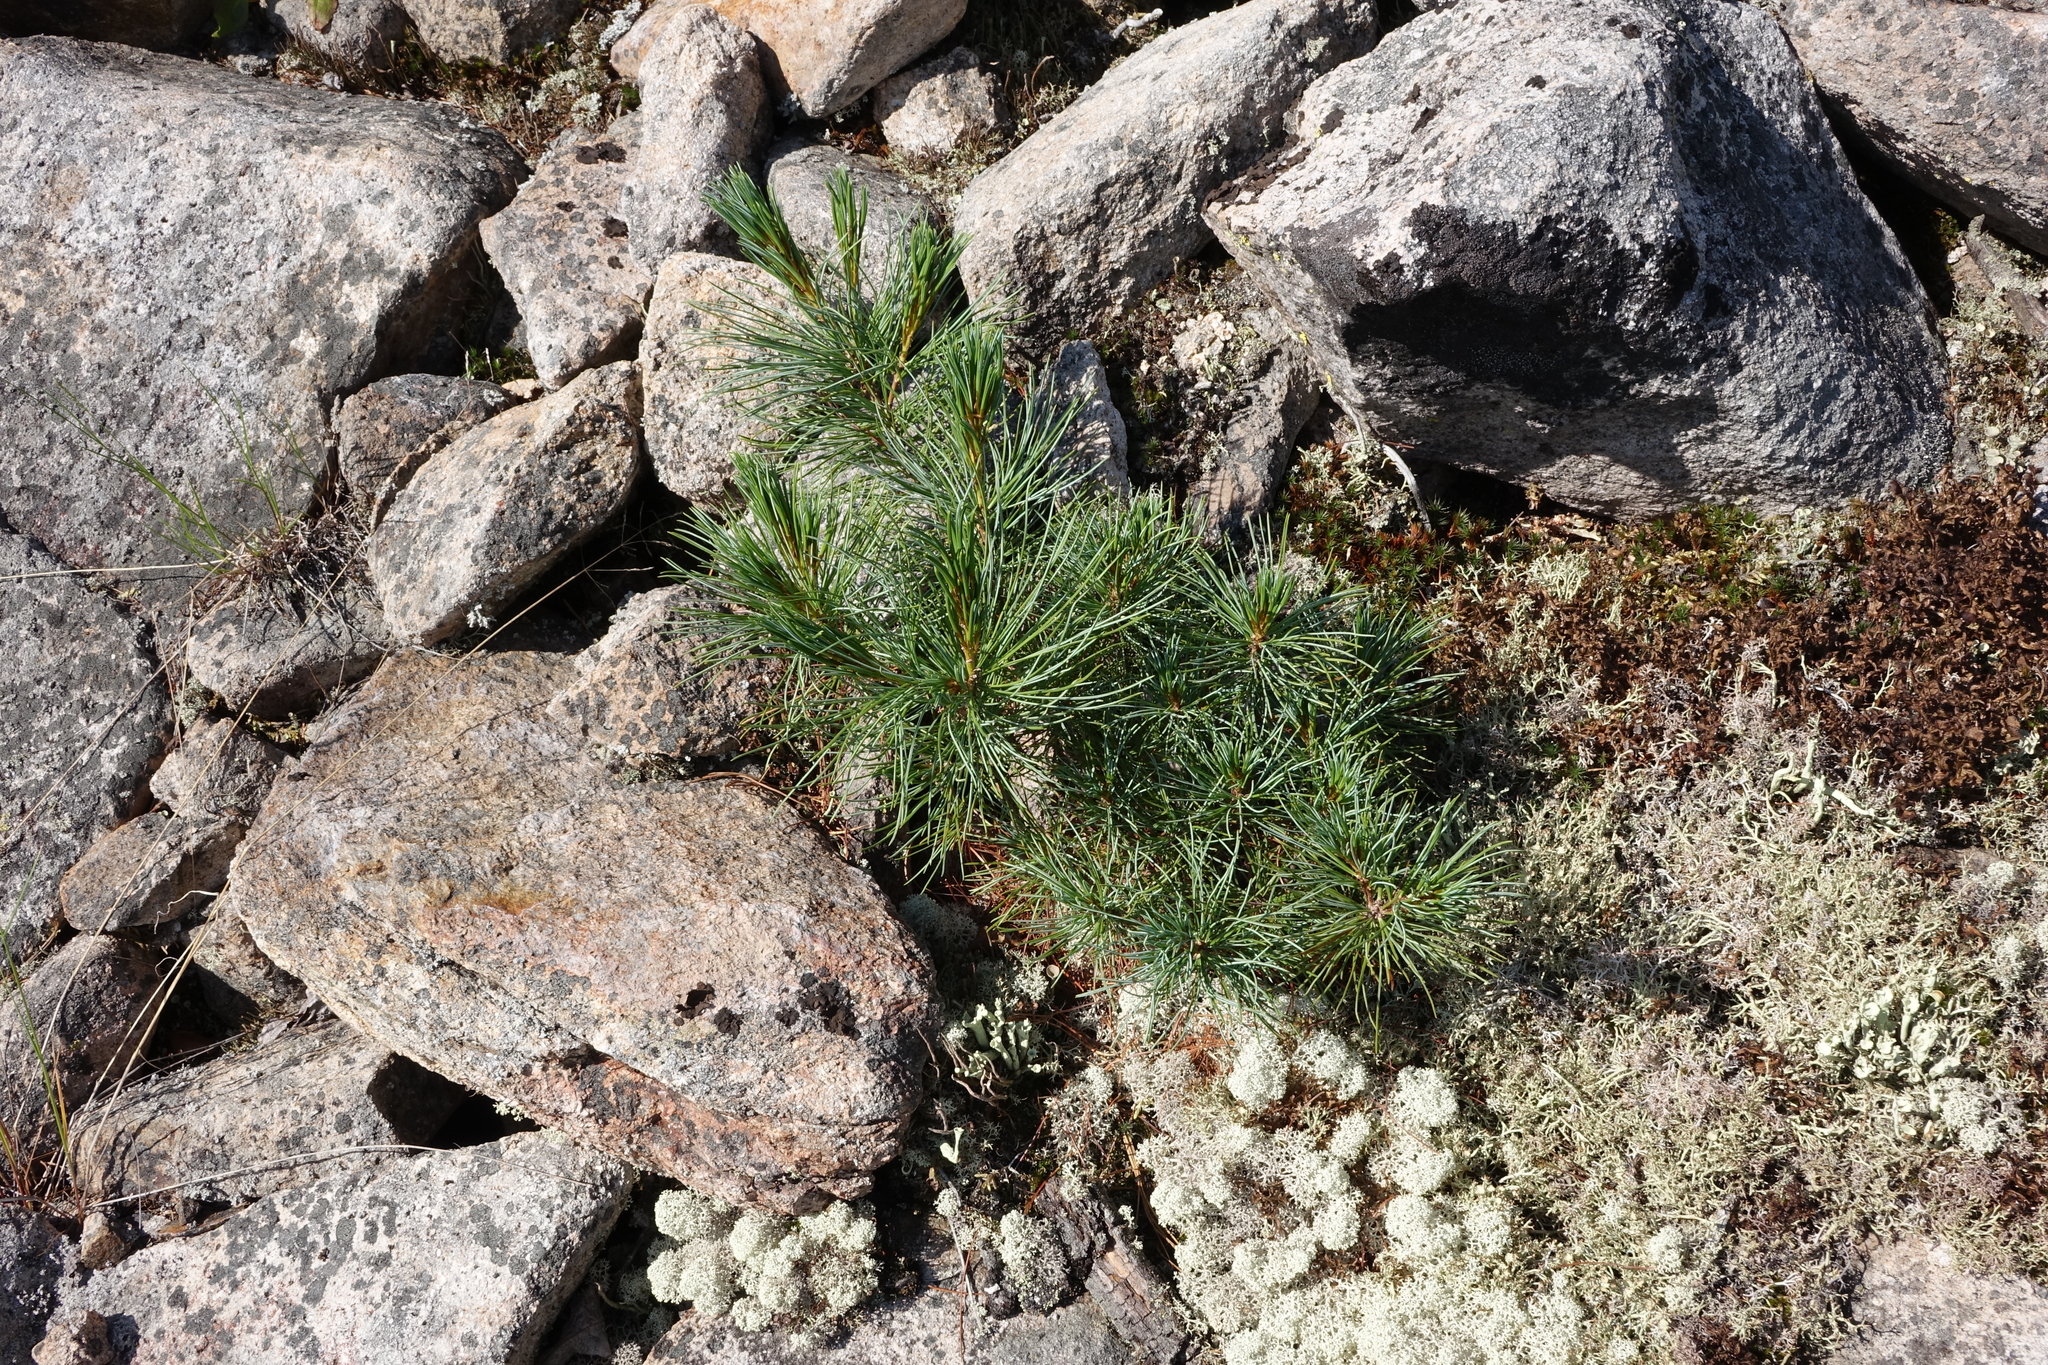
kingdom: Plantae
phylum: Tracheophyta
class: Pinopsida
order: Pinales
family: Pinaceae
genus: Pinus
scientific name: Pinus pumila
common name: Dwarf siberian pine
